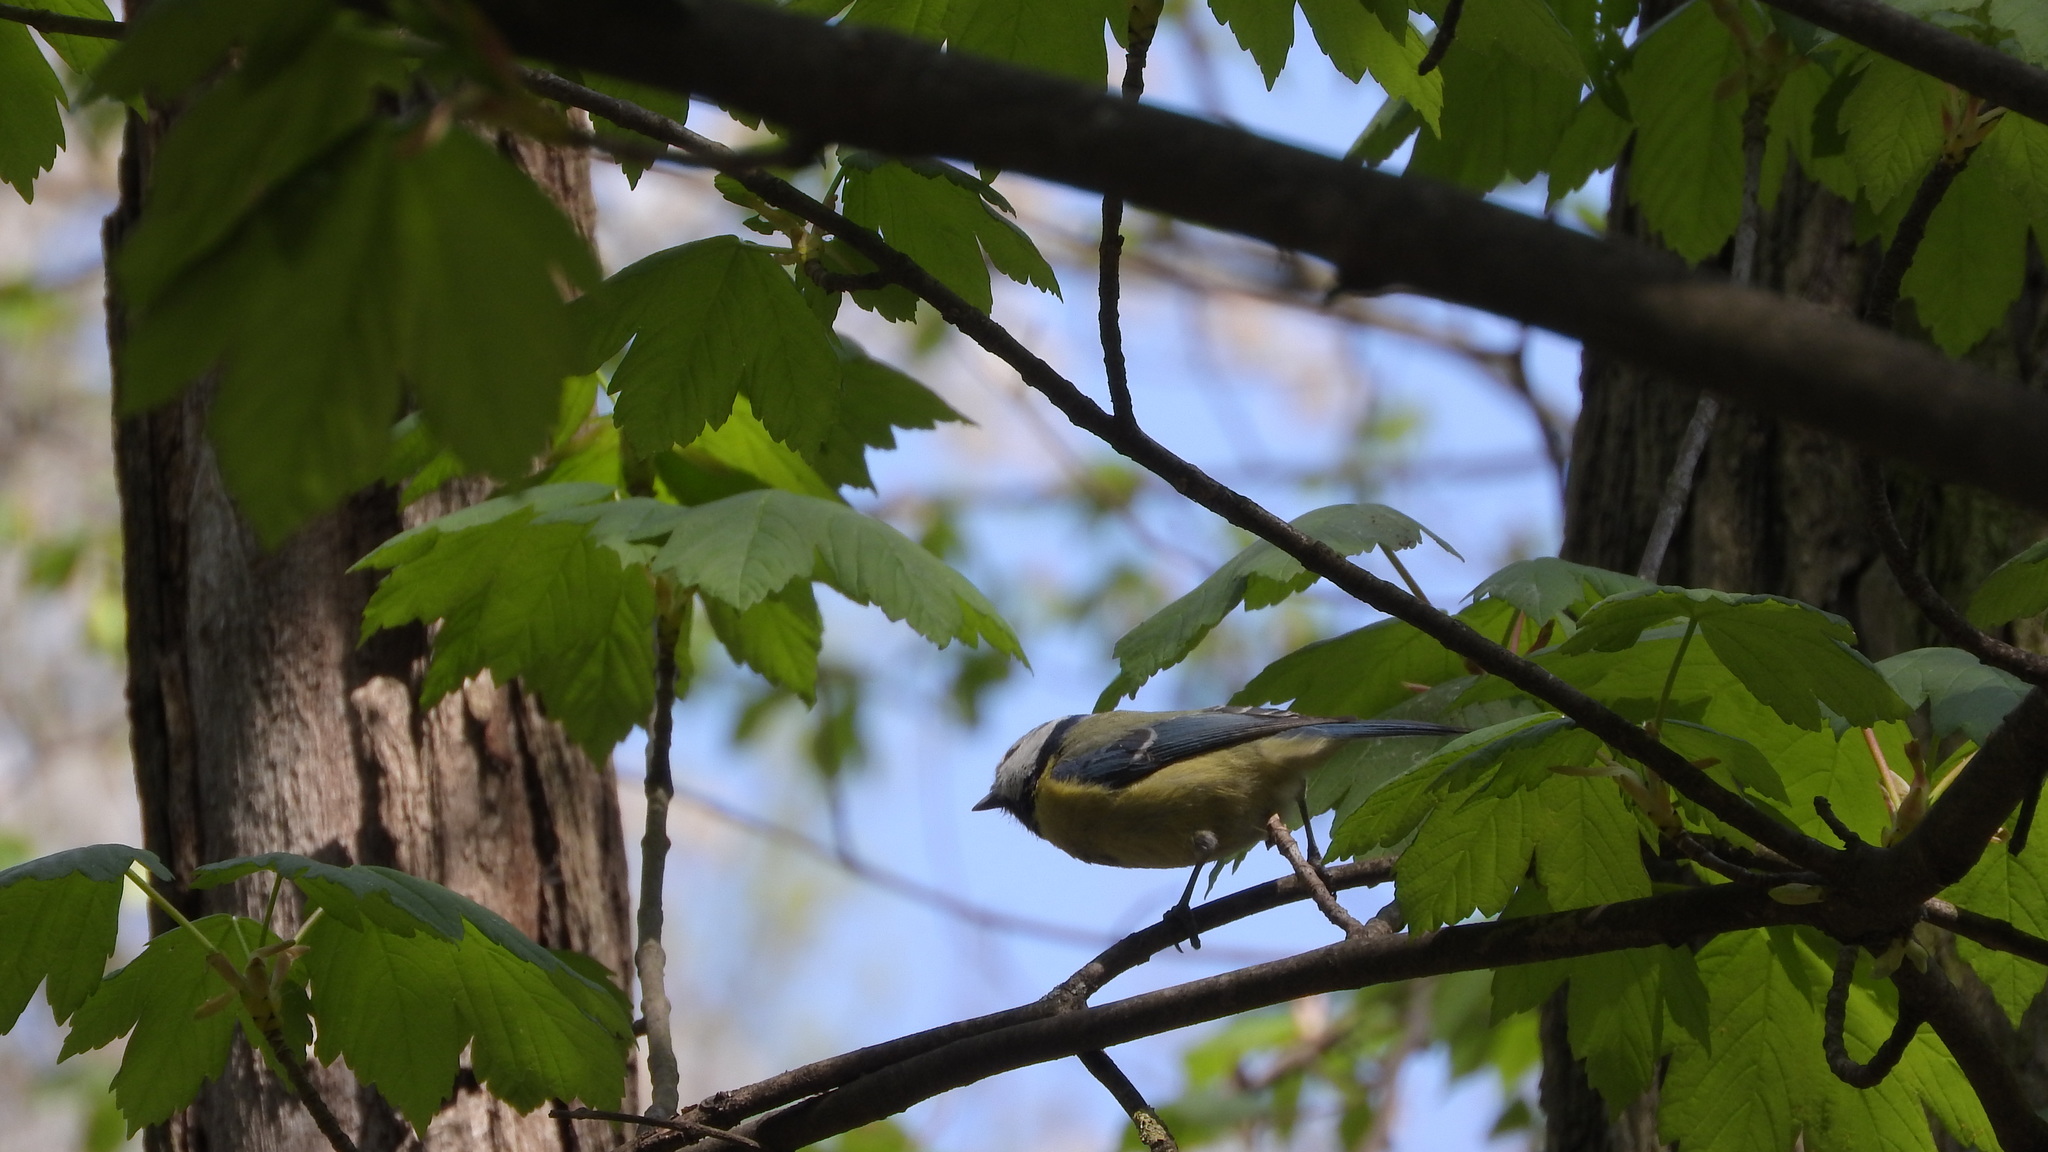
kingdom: Animalia
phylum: Chordata
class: Aves
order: Passeriformes
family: Paridae
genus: Cyanistes
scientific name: Cyanistes caeruleus
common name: Eurasian blue tit
